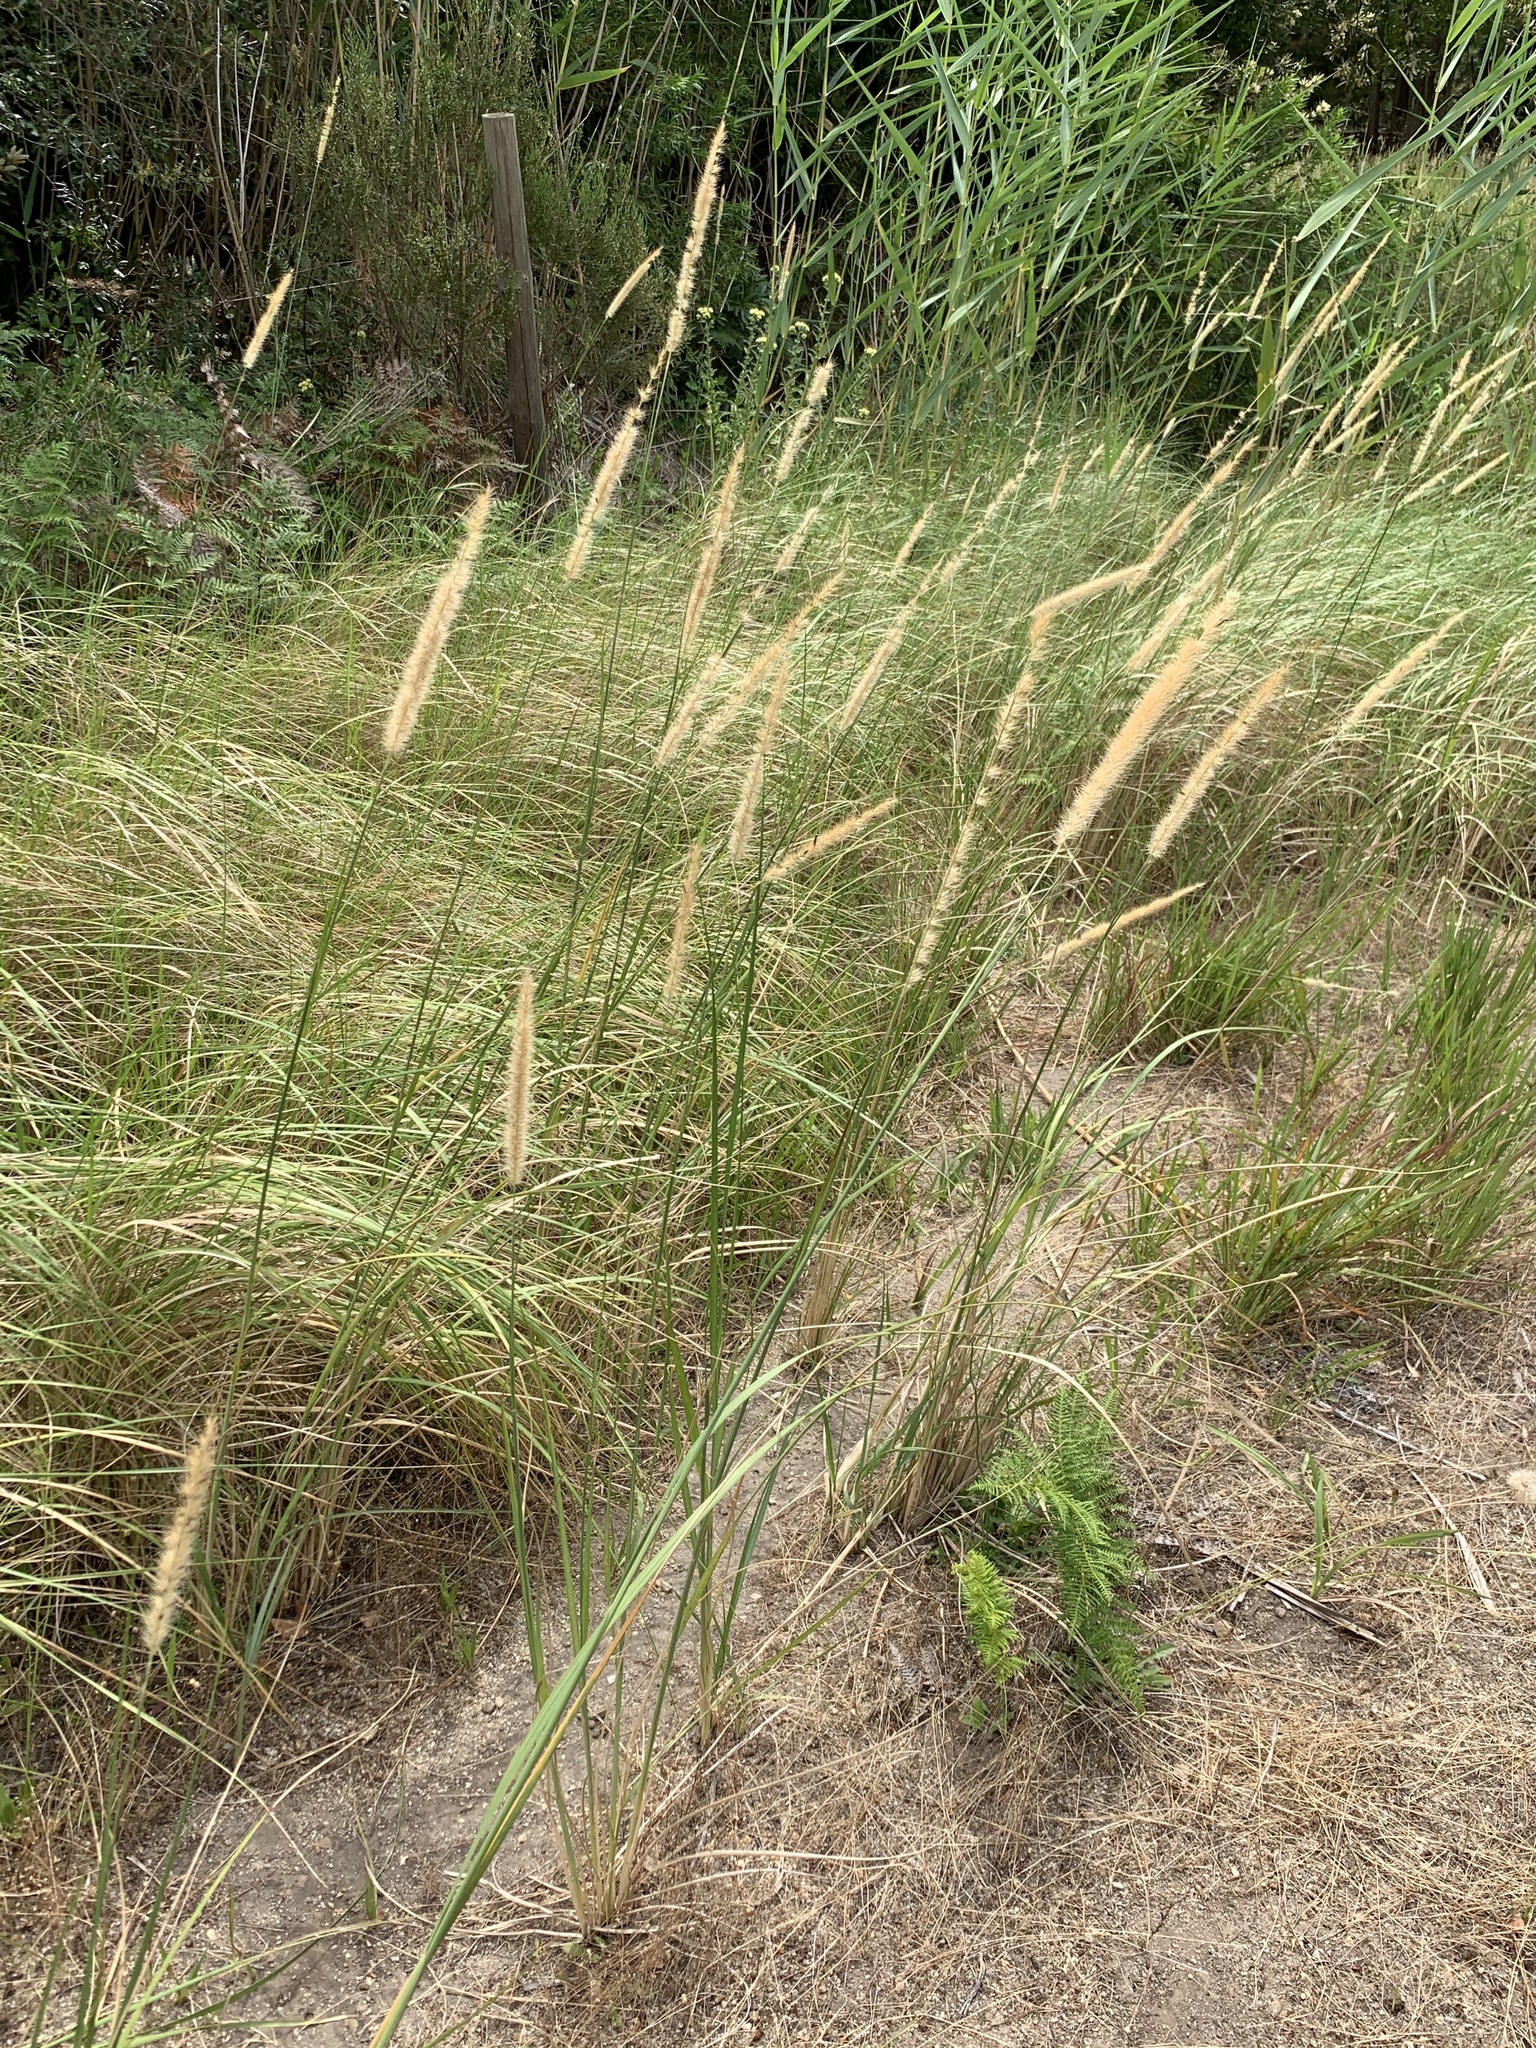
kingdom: Plantae
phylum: Tracheophyta
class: Liliopsida
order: Poales
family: Poaceae
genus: Cenchrus
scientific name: Cenchrus caudatus
